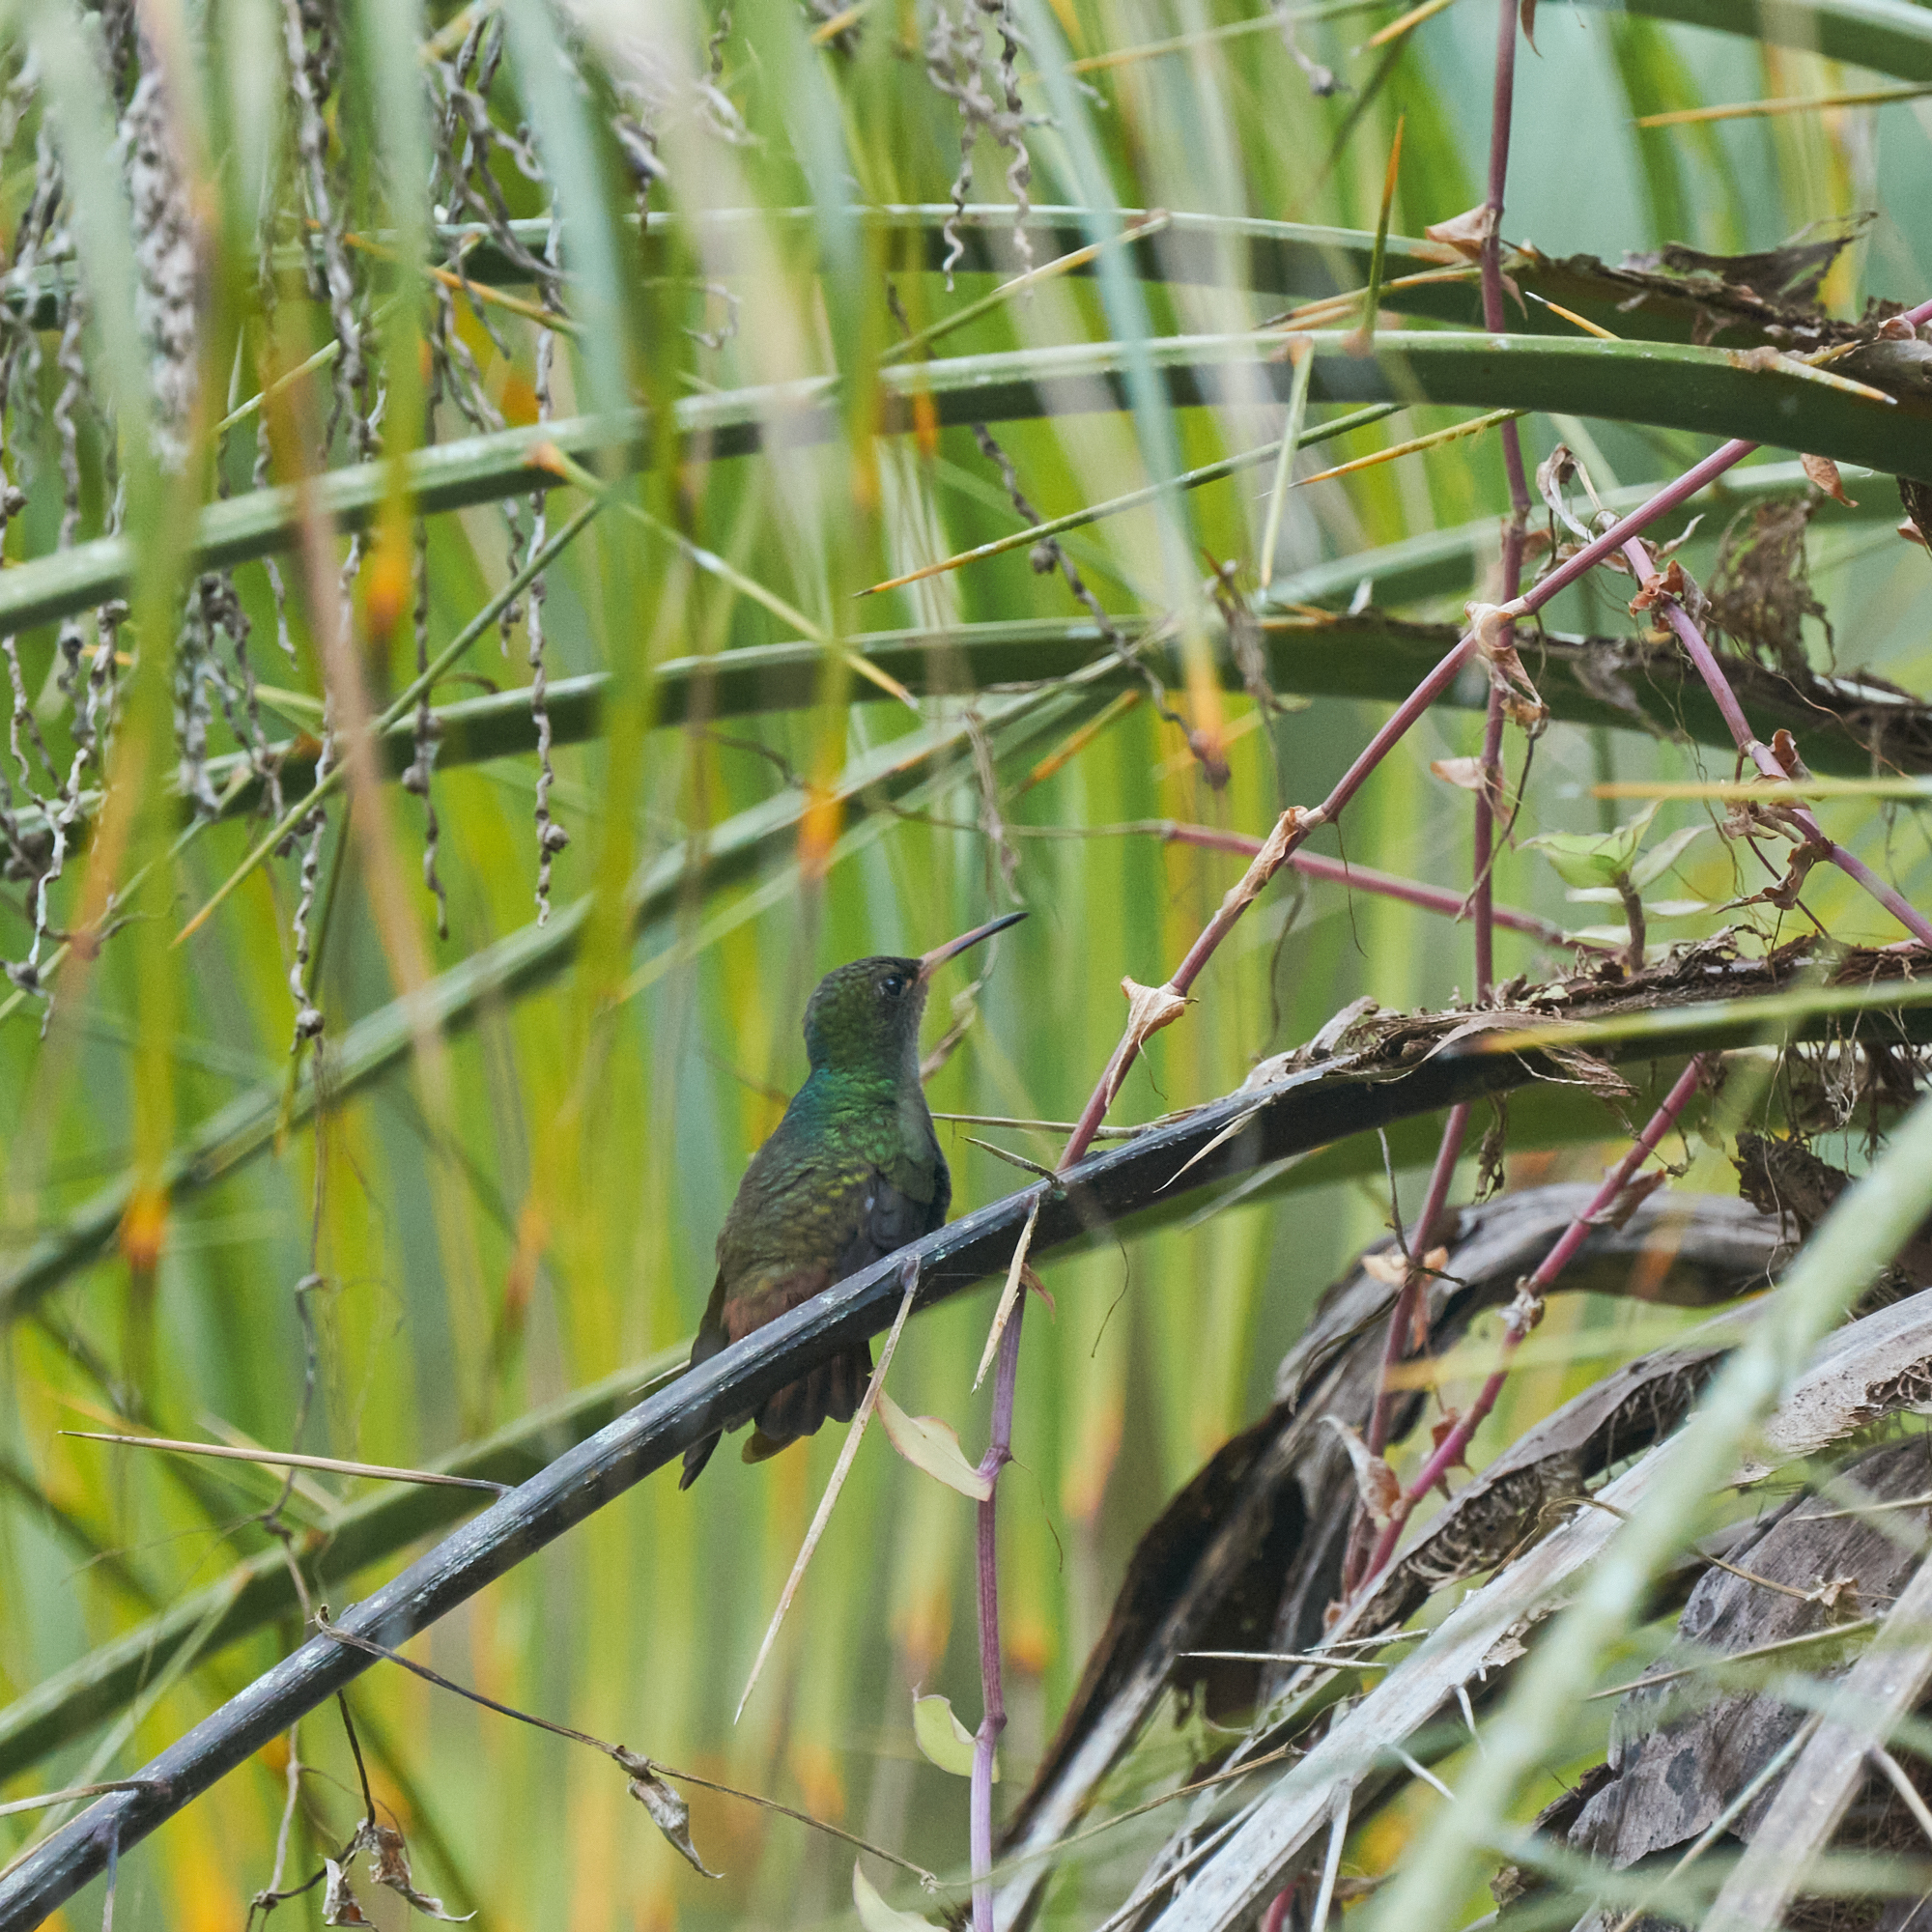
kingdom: Animalia
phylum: Chordata
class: Aves
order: Apodiformes
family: Trochilidae
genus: Amazilia
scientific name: Amazilia tzacatl
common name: Rufous-tailed hummingbird
